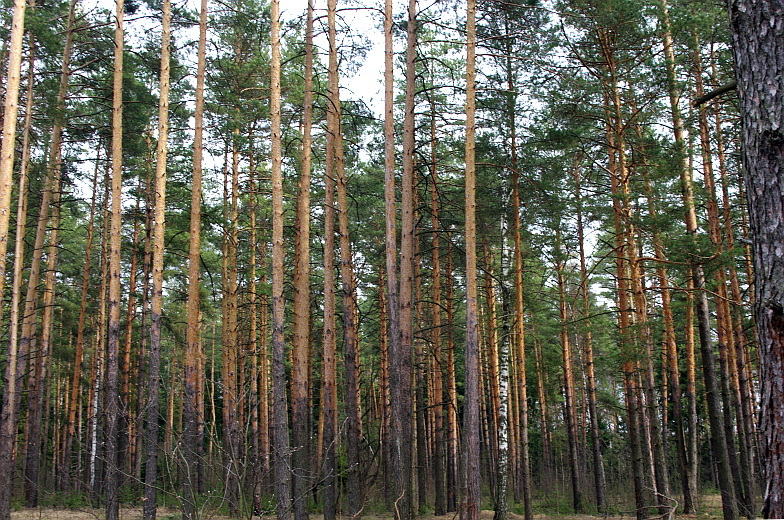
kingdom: Plantae
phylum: Tracheophyta
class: Pinopsida
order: Pinales
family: Pinaceae
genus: Pinus
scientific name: Pinus sylvestris
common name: Scots pine
